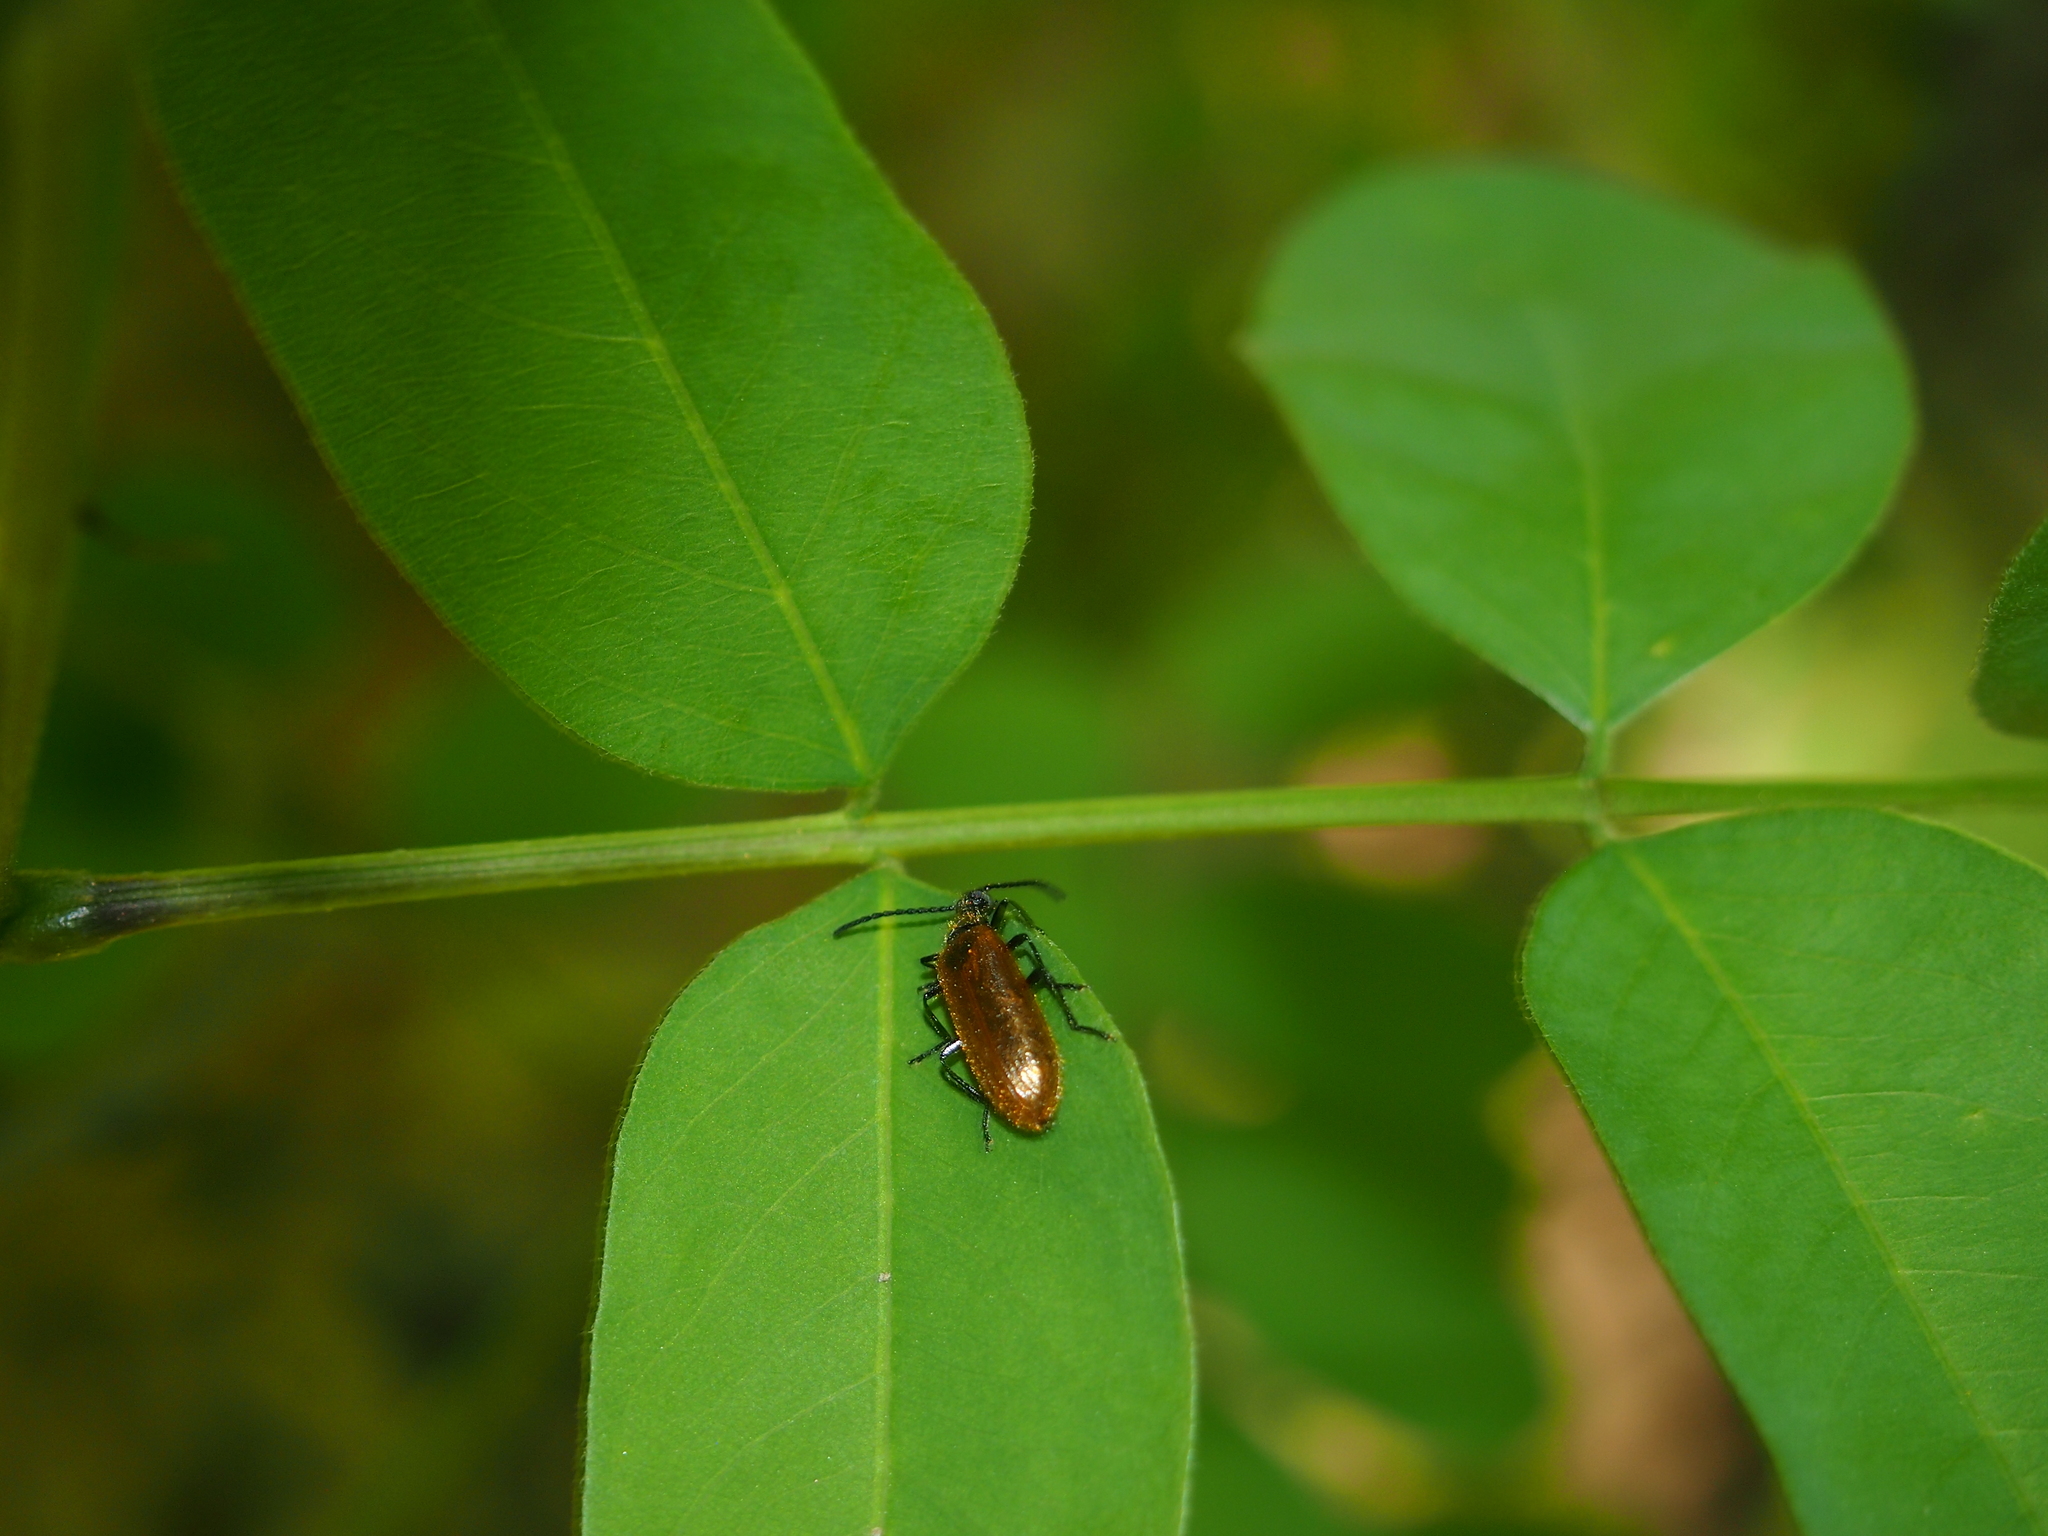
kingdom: Animalia
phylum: Arthropoda
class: Insecta
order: Coleoptera
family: Tenebrionidae
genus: Lagria
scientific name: Lagria atripes
